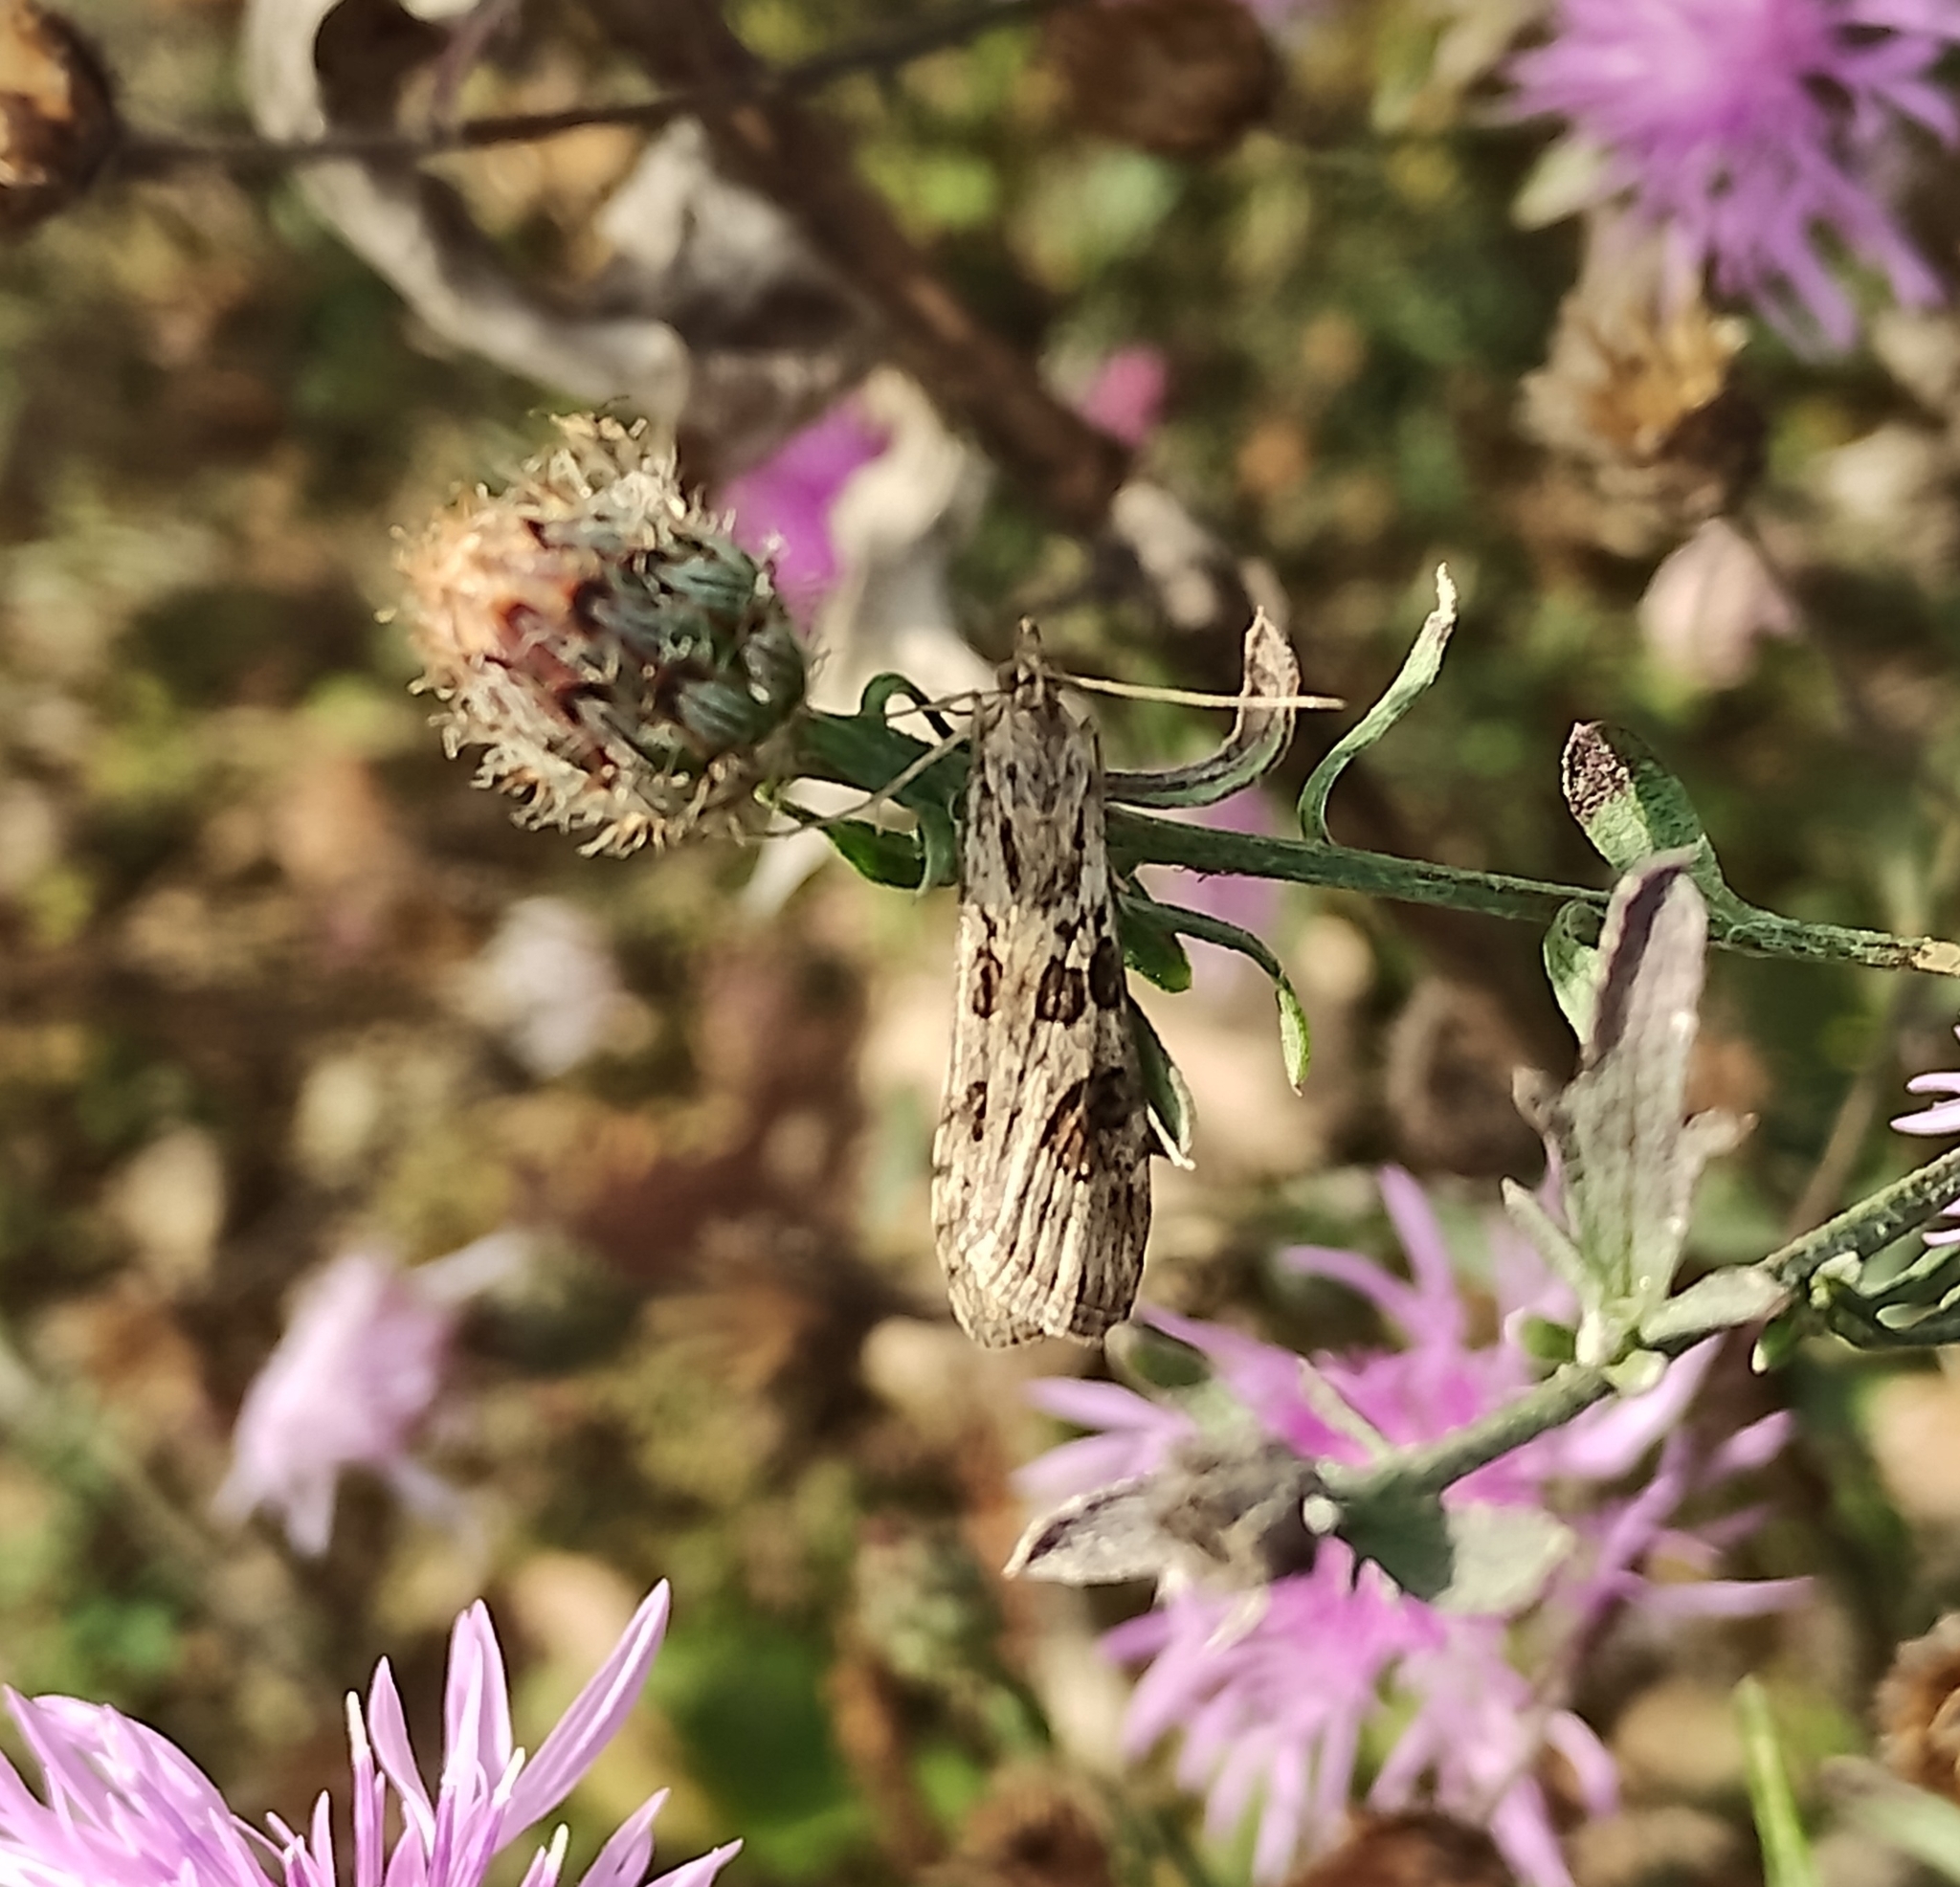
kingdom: Animalia
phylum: Arthropoda
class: Insecta
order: Lepidoptera
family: Crambidae
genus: Nomophila
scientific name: Nomophila noctuella
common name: Rush veneer
